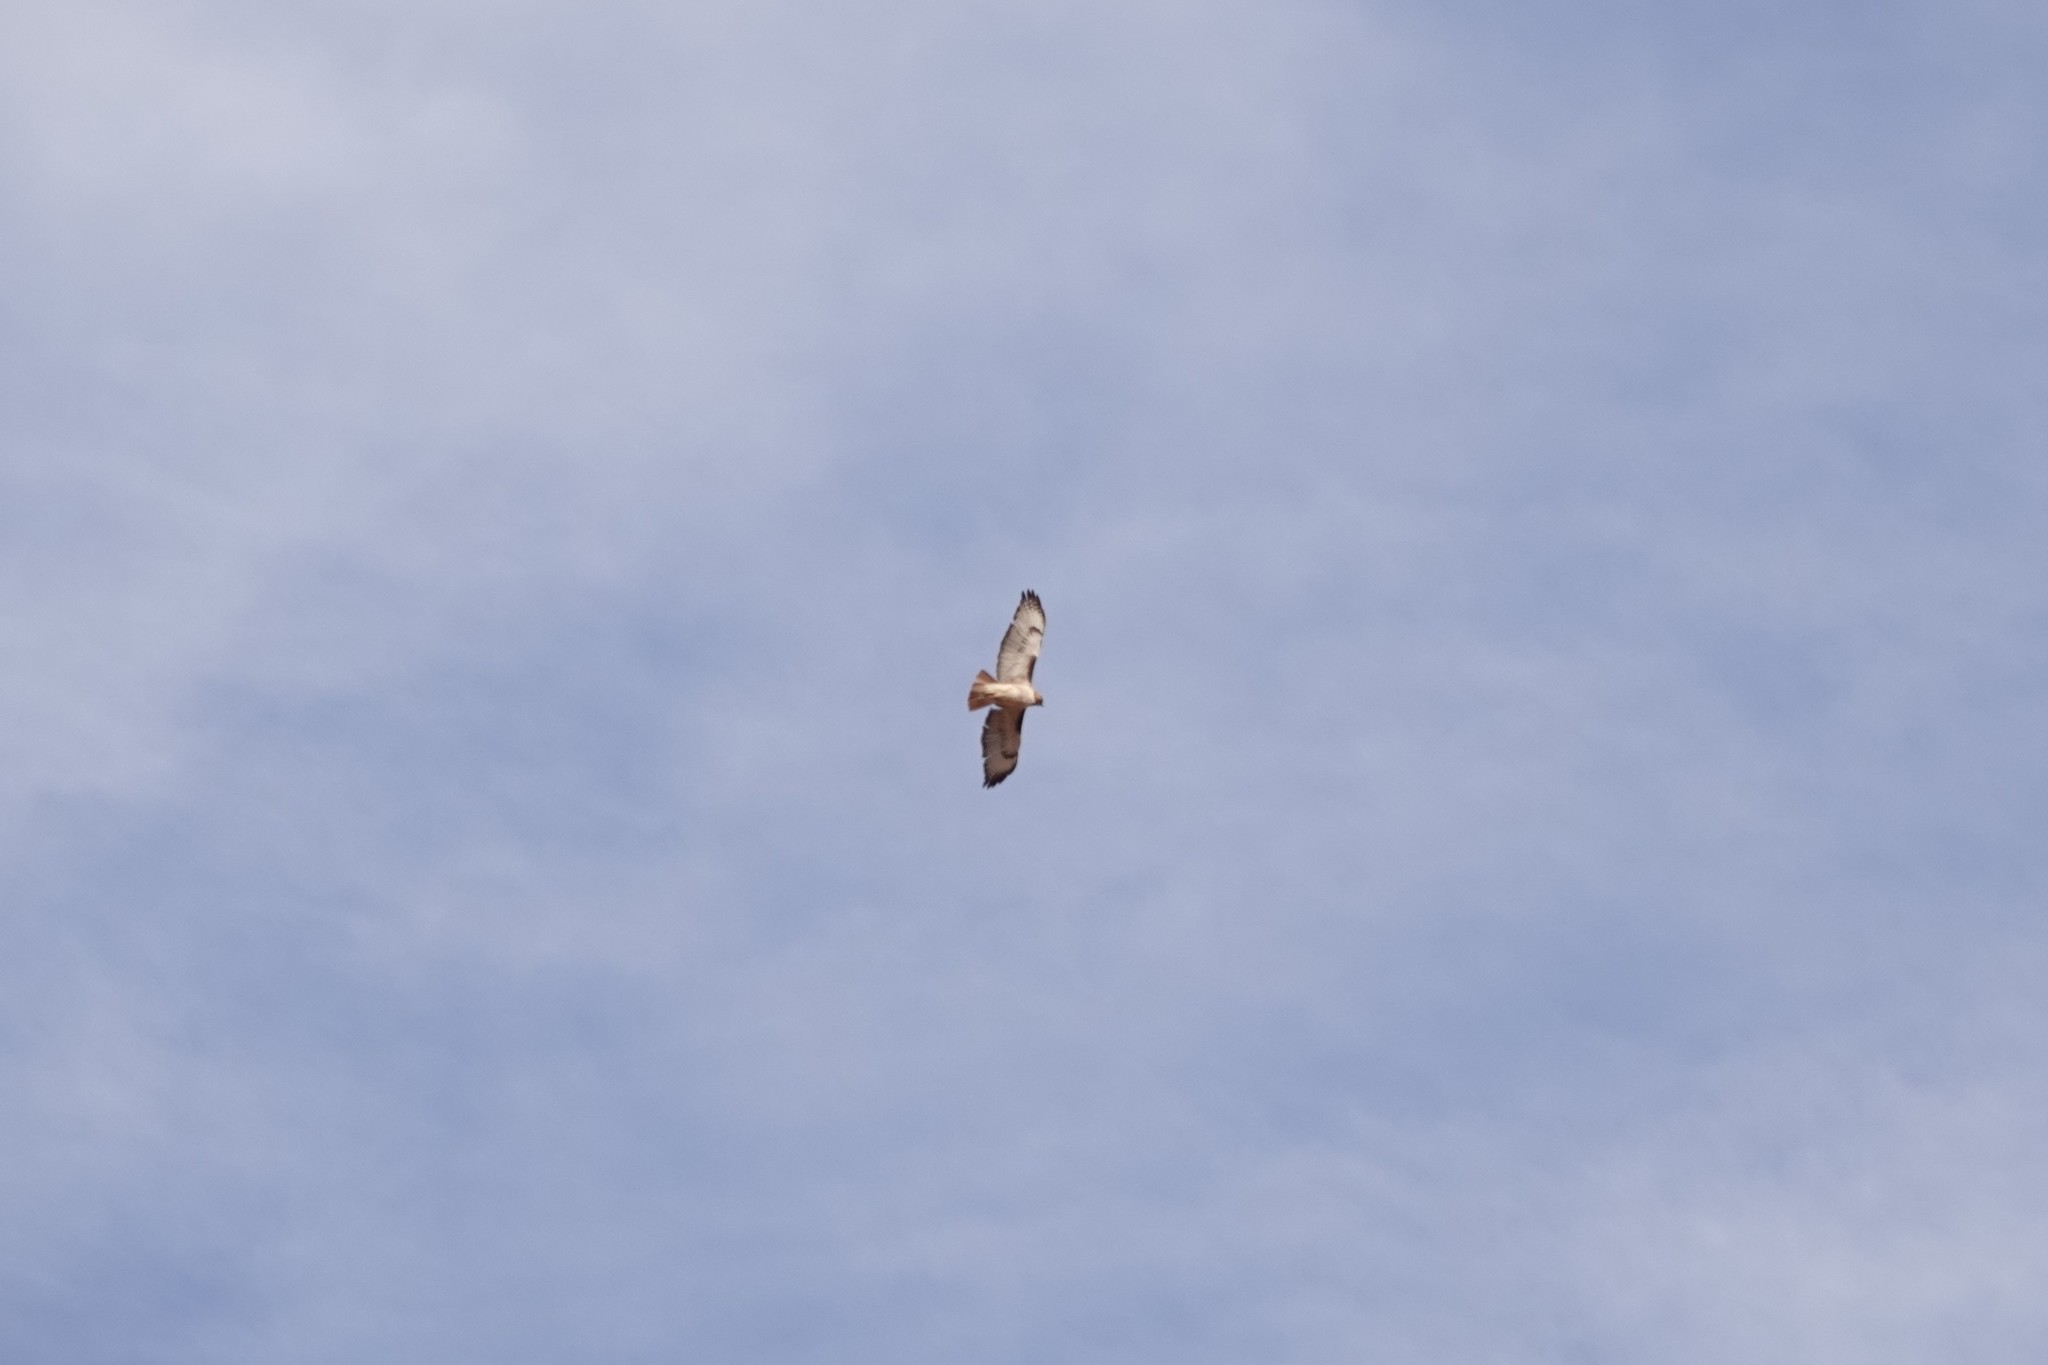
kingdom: Animalia
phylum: Chordata
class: Aves
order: Accipitriformes
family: Accipitridae
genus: Buteo
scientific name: Buteo jamaicensis
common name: Red-tailed hawk
